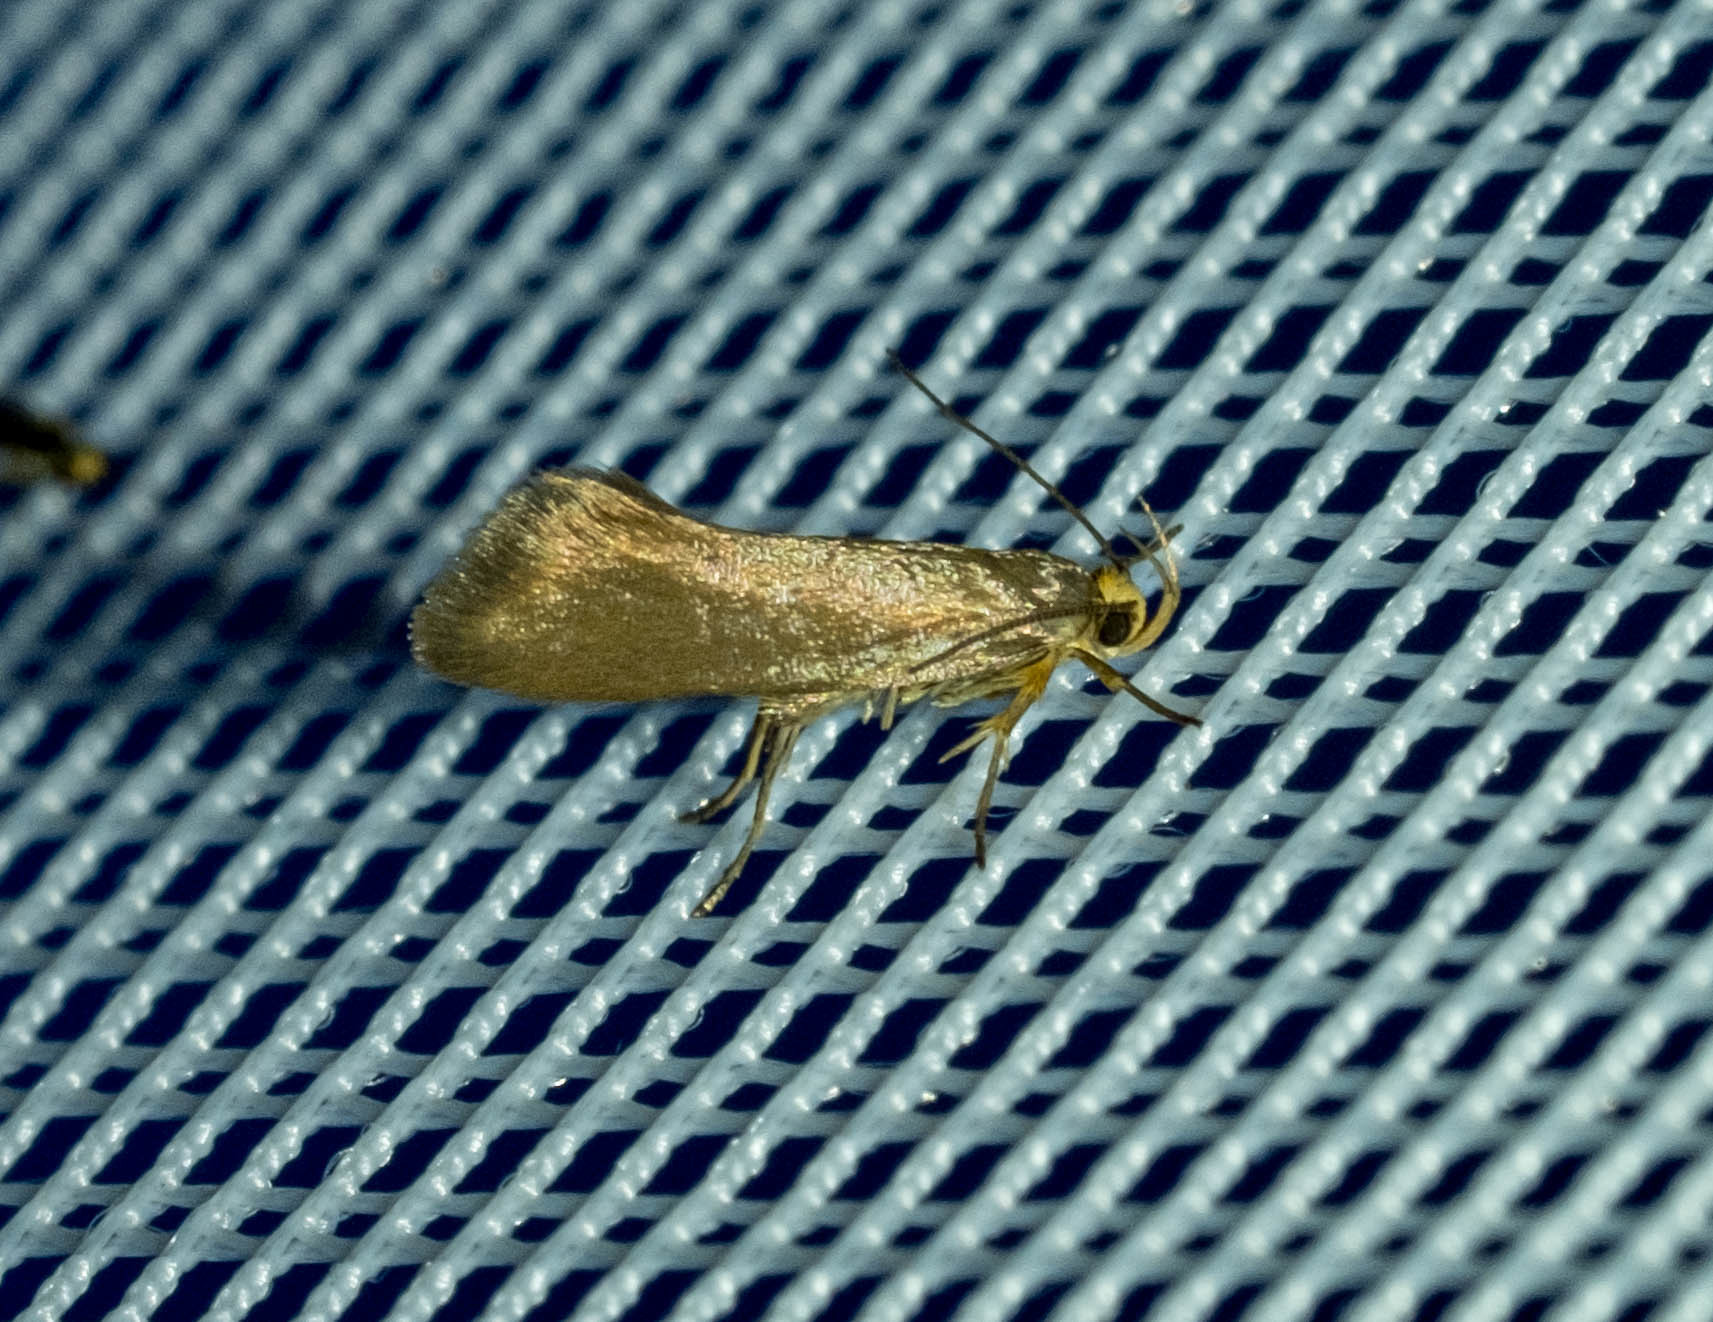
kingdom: Animalia
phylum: Arthropoda
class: Insecta
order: Lepidoptera
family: Oecophoridae
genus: Borkhausenia
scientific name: Borkhausenia Crassa unitella
